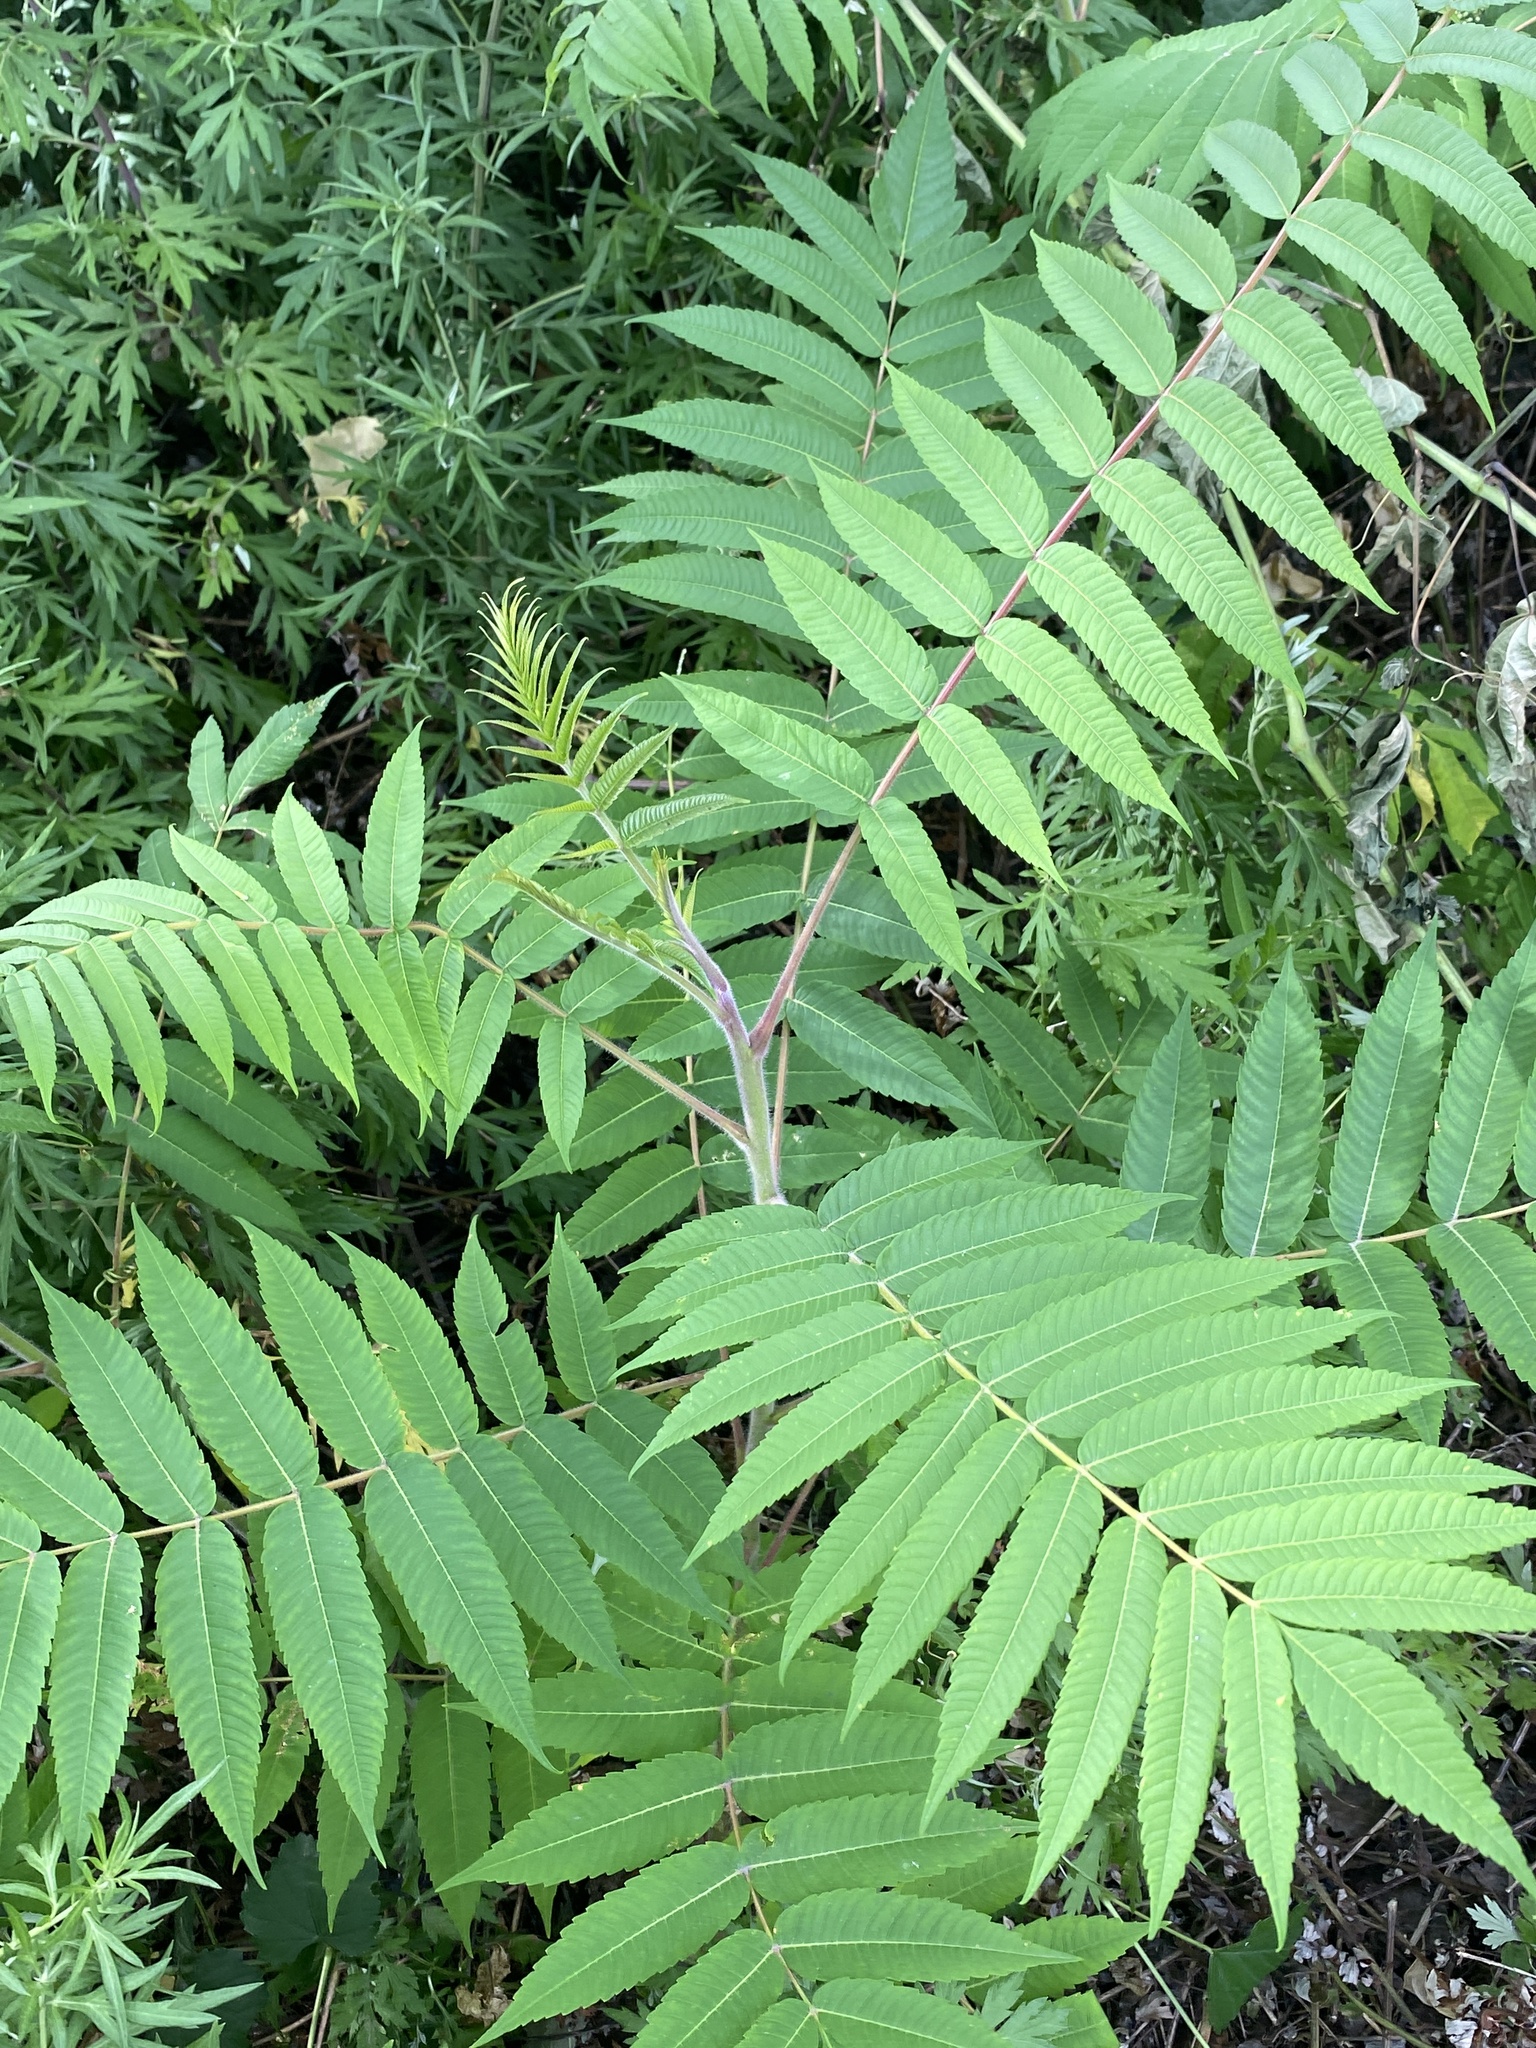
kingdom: Plantae
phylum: Tracheophyta
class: Magnoliopsida
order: Sapindales
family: Anacardiaceae
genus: Rhus
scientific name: Rhus typhina
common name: Staghorn sumac
